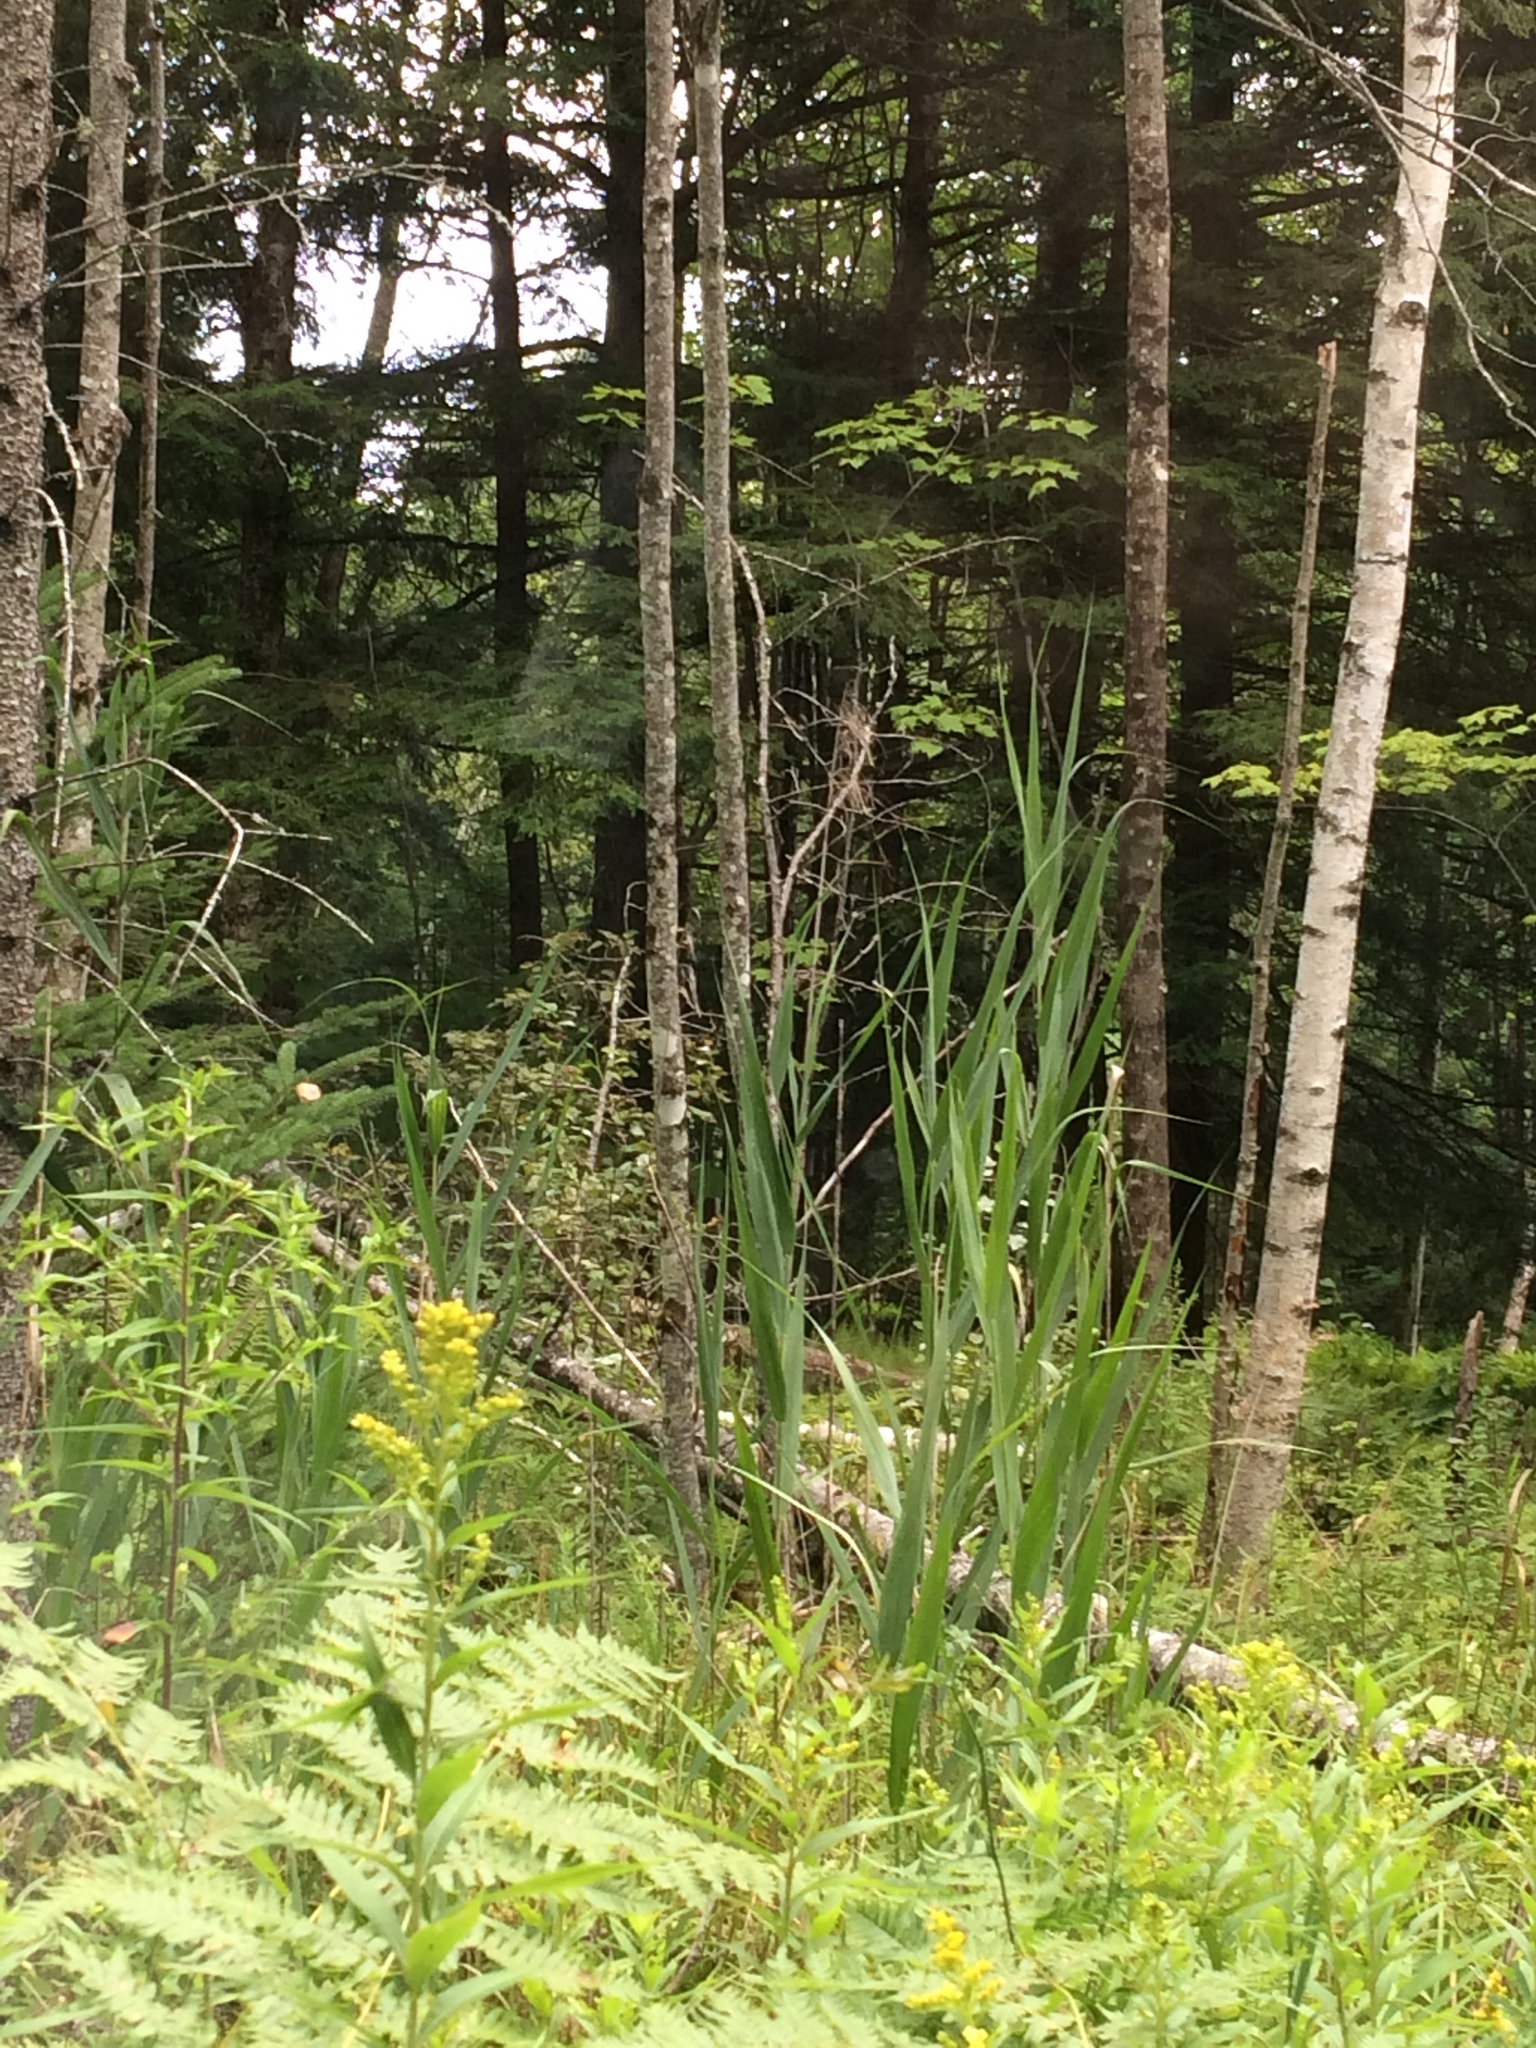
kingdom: Plantae
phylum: Tracheophyta
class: Liliopsida
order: Poales
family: Poaceae
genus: Phragmites
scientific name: Phragmites australis
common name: Common reed
